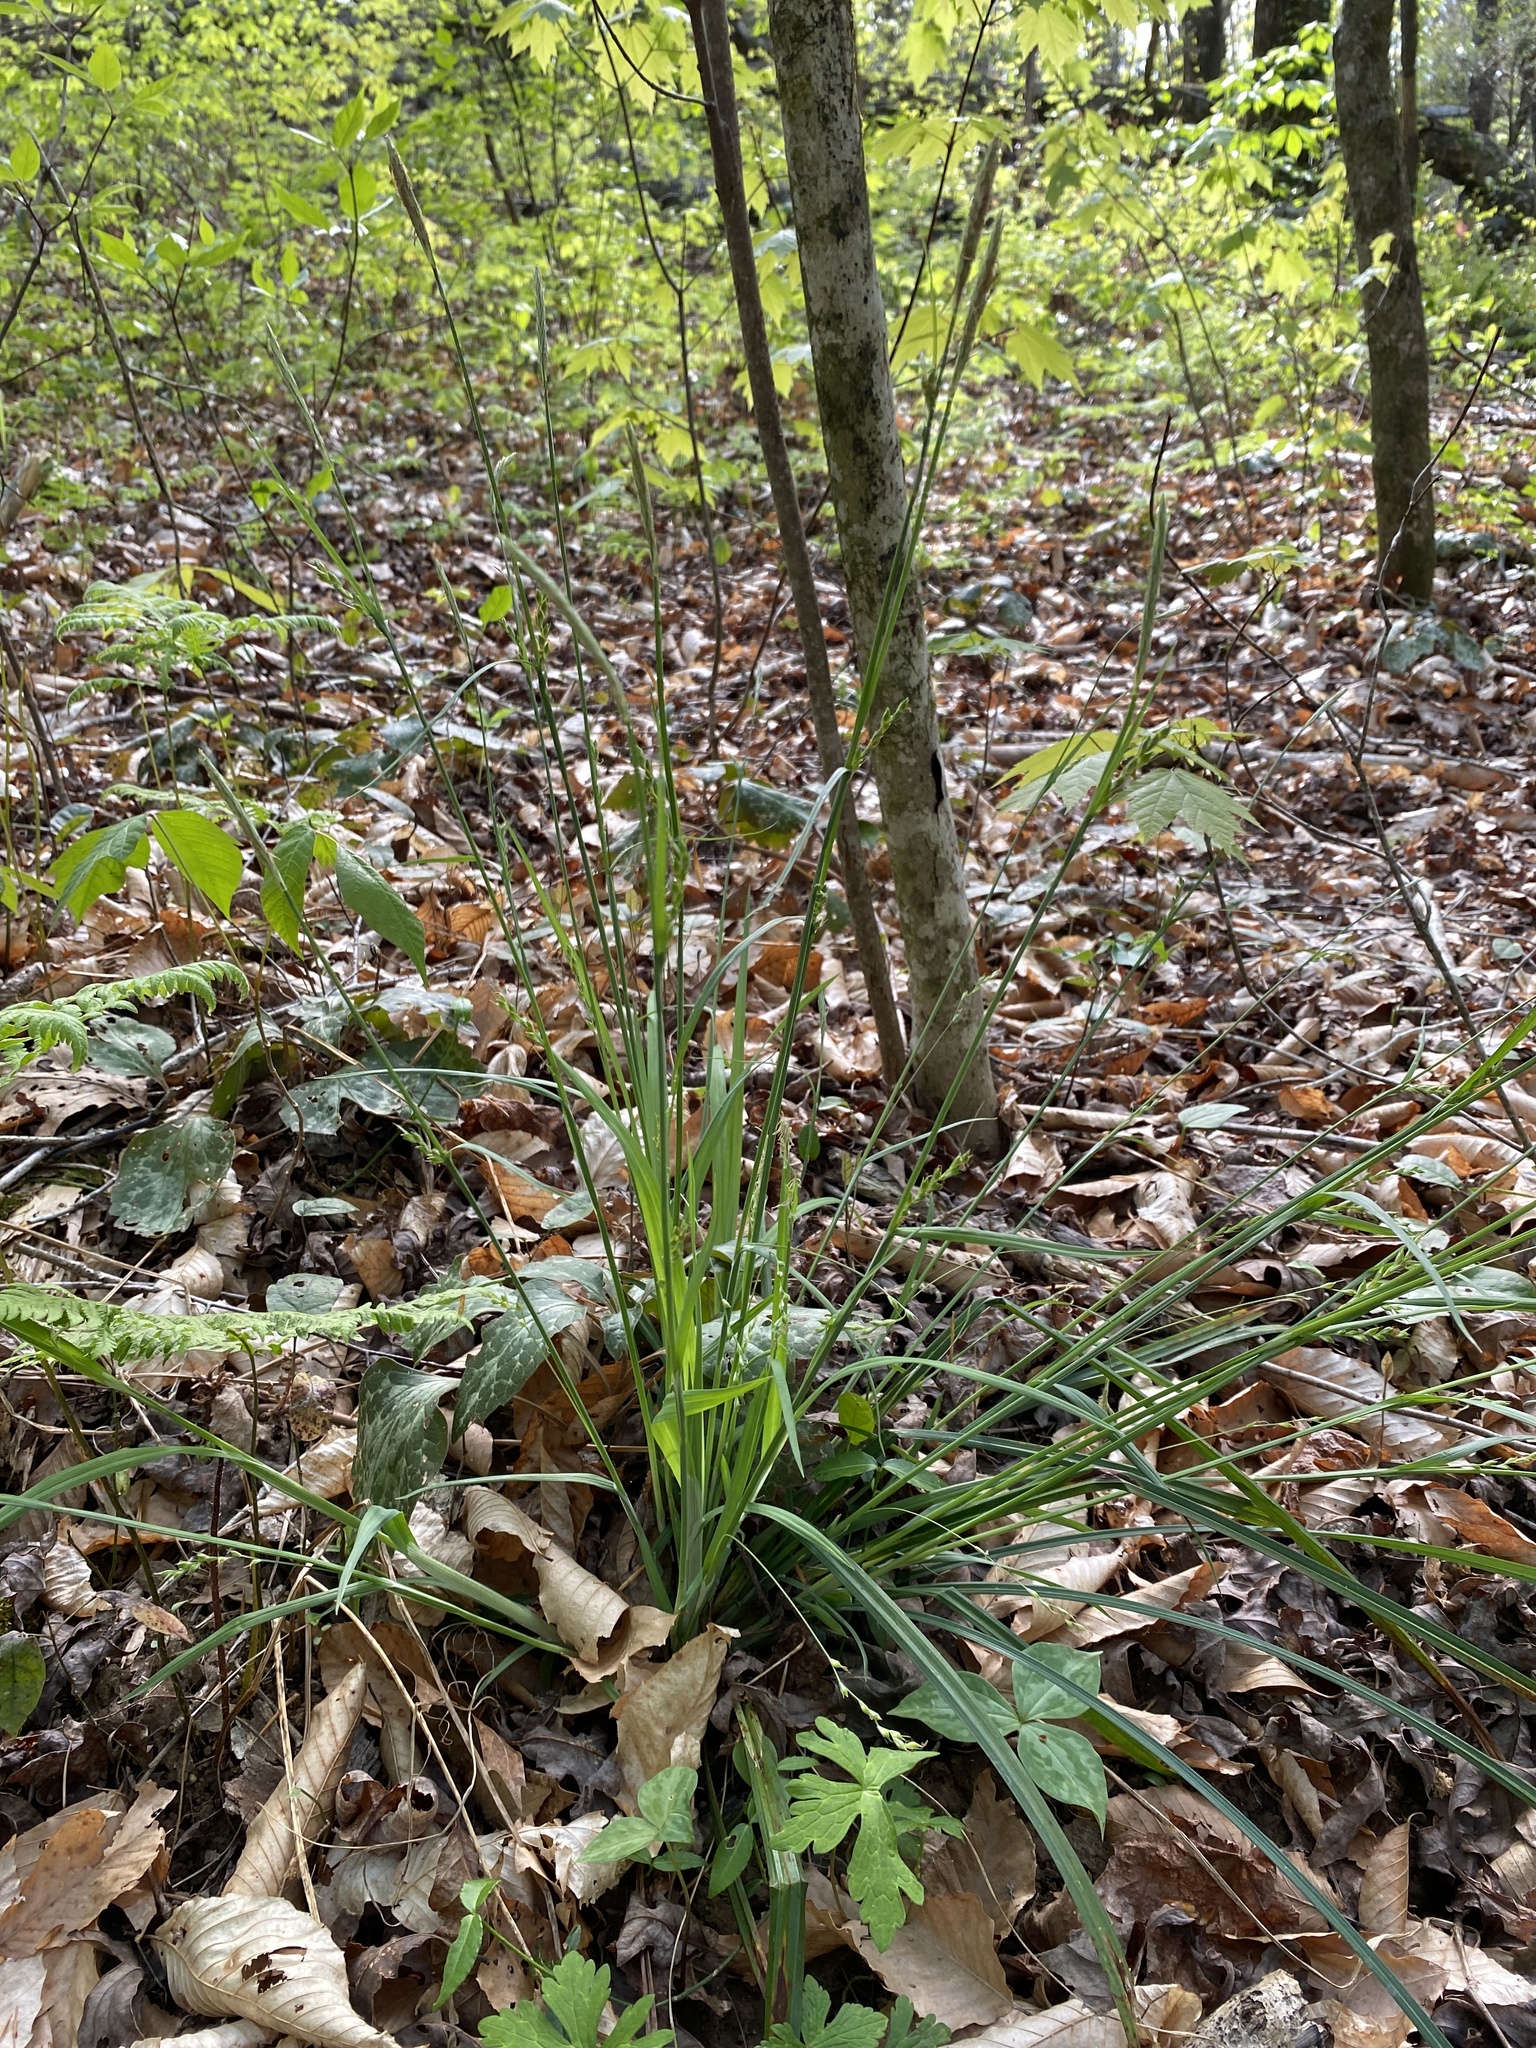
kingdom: Plantae
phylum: Tracheophyta
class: Liliopsida
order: Poales
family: Cyperaceae
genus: Carex
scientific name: Carex radfordii
